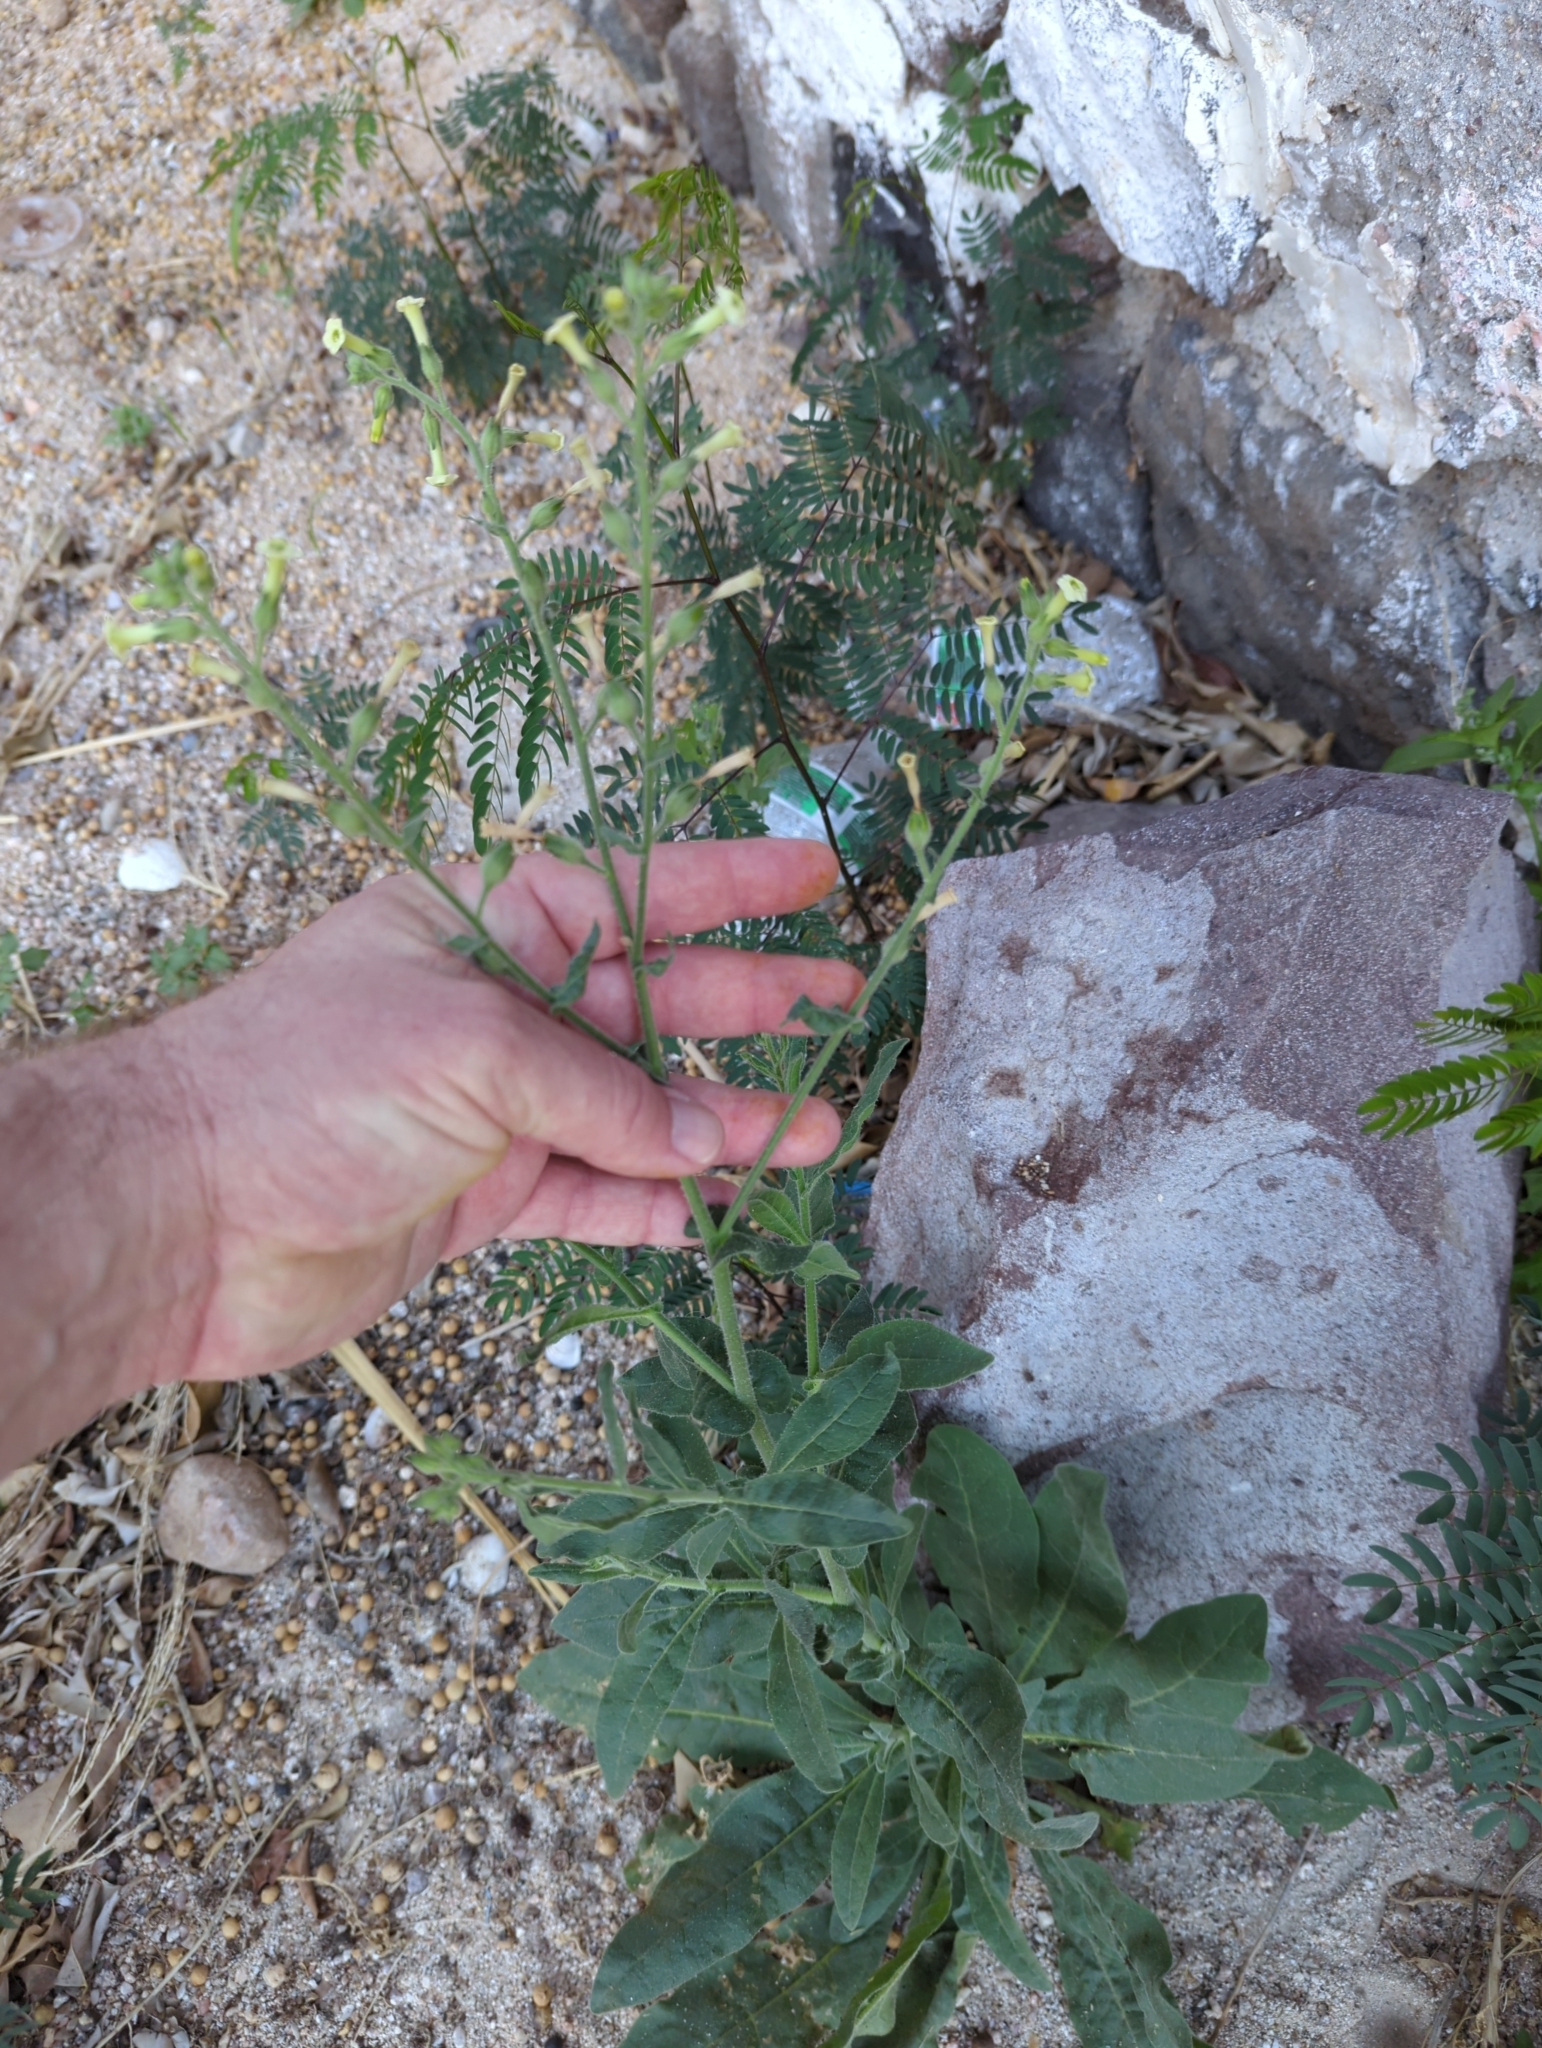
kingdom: Plantae
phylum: Tracheophyta
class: Magnoliopsida
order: Solanales
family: Solanaceae
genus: Nicotiana
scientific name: Nicotiana obtusifolia
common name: Desert tobacco
